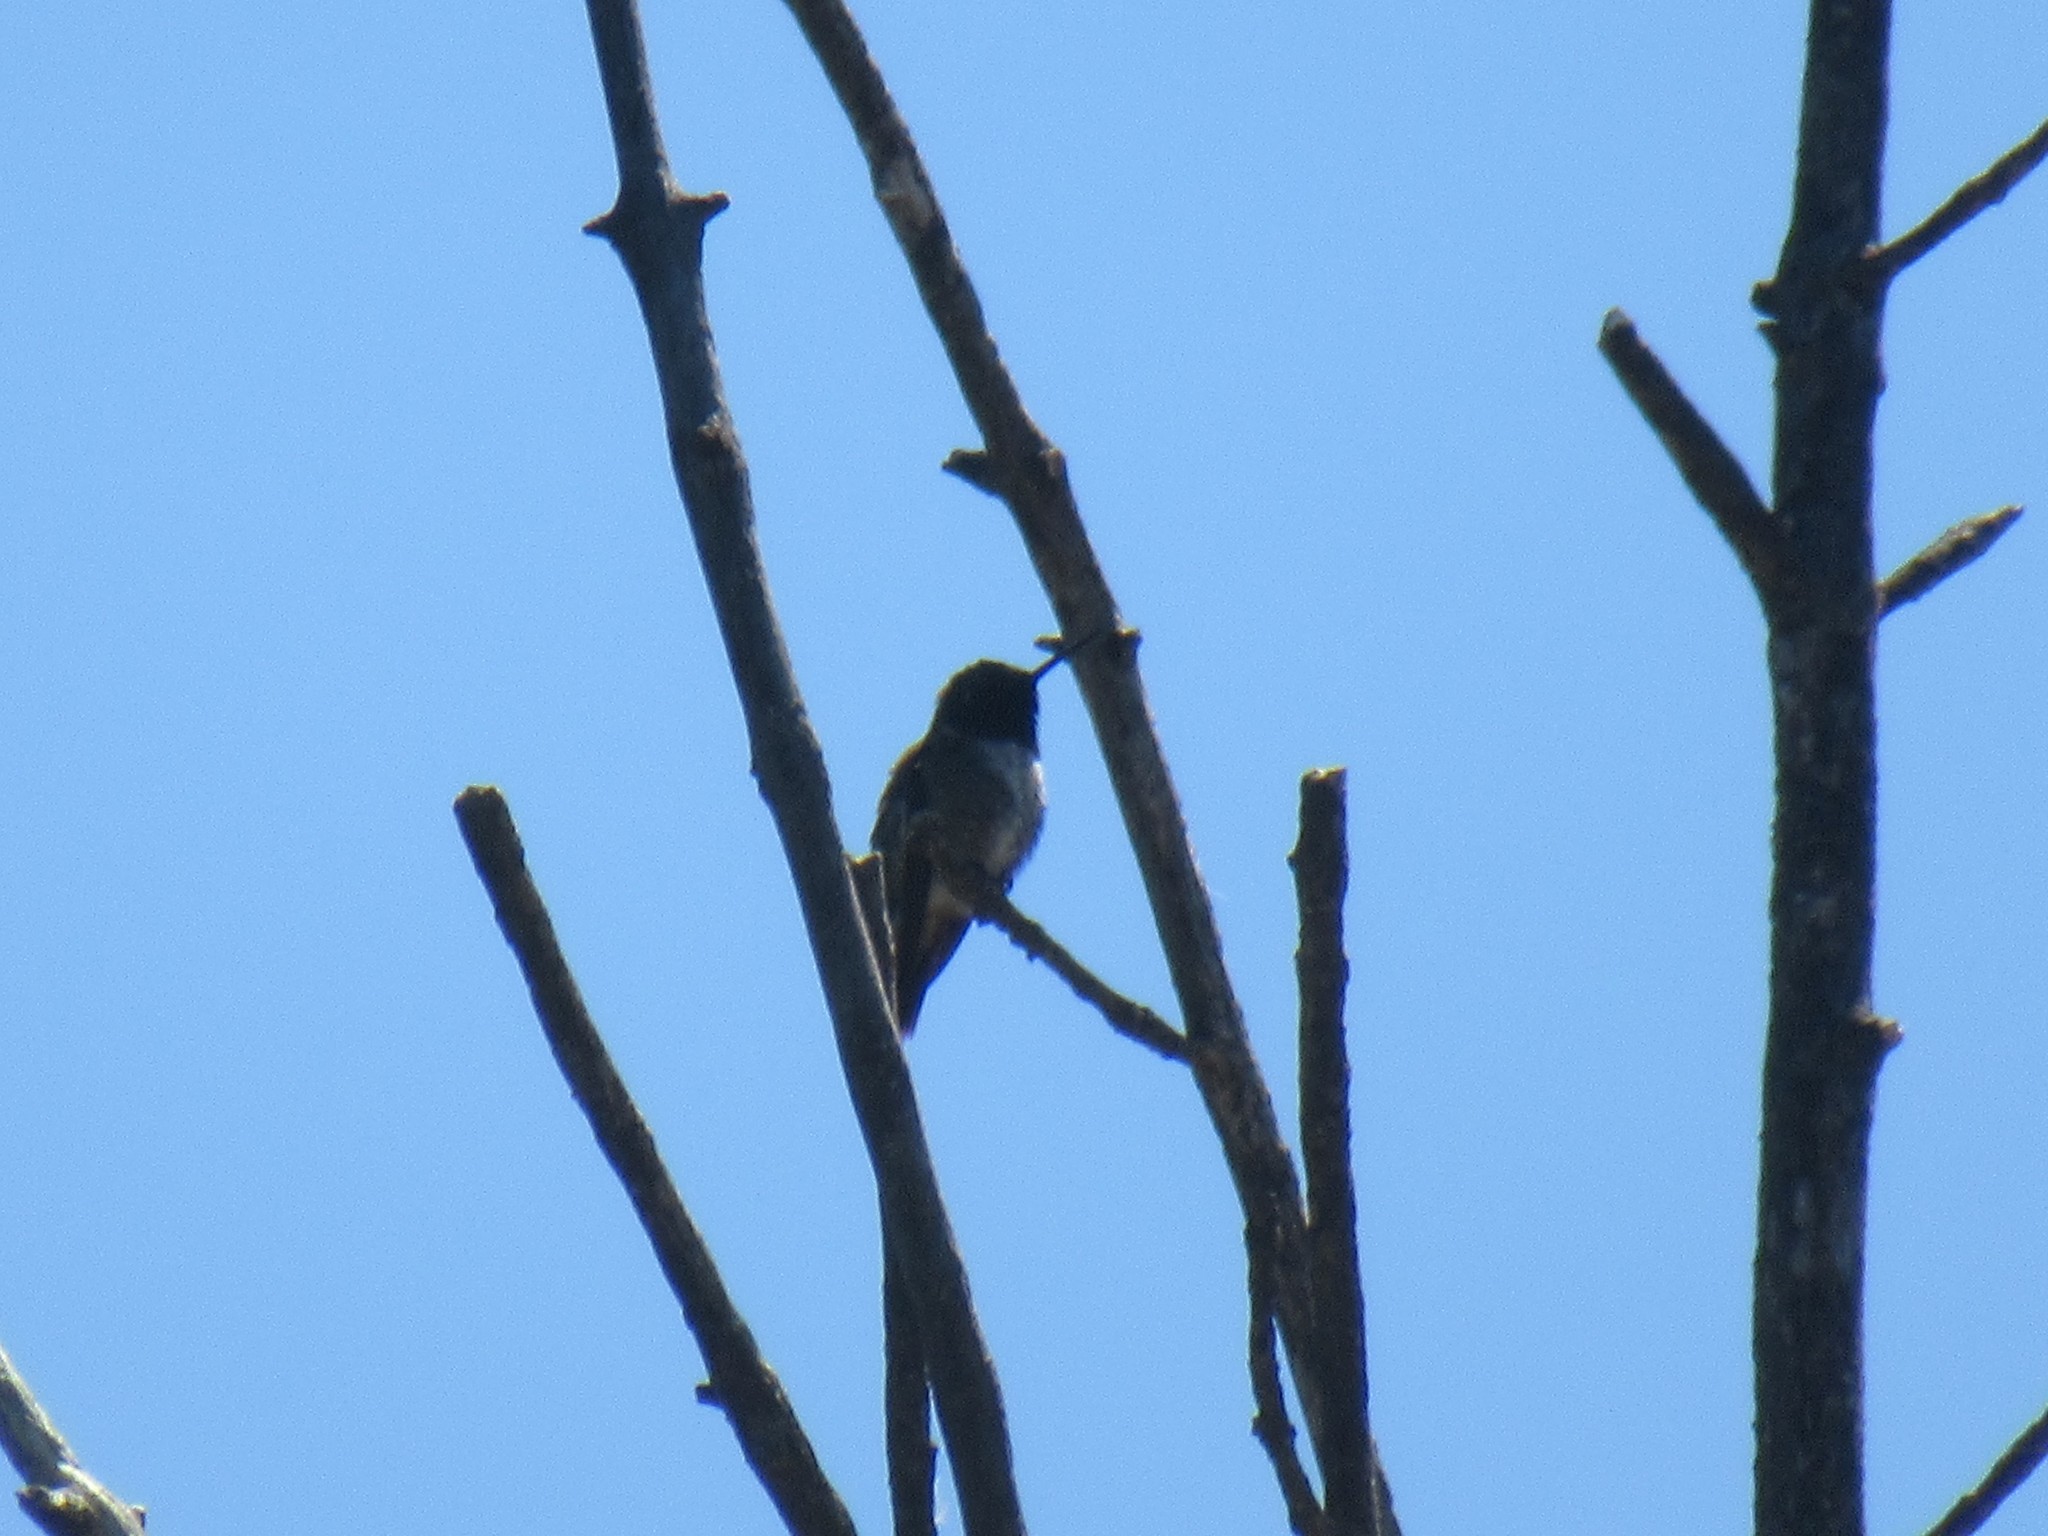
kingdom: Animalia
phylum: Chordata
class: Aves
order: Apodiformes
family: Trochilidae
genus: Archilochus
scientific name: Archilochus alexandri
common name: Black-chinned hummingbird
